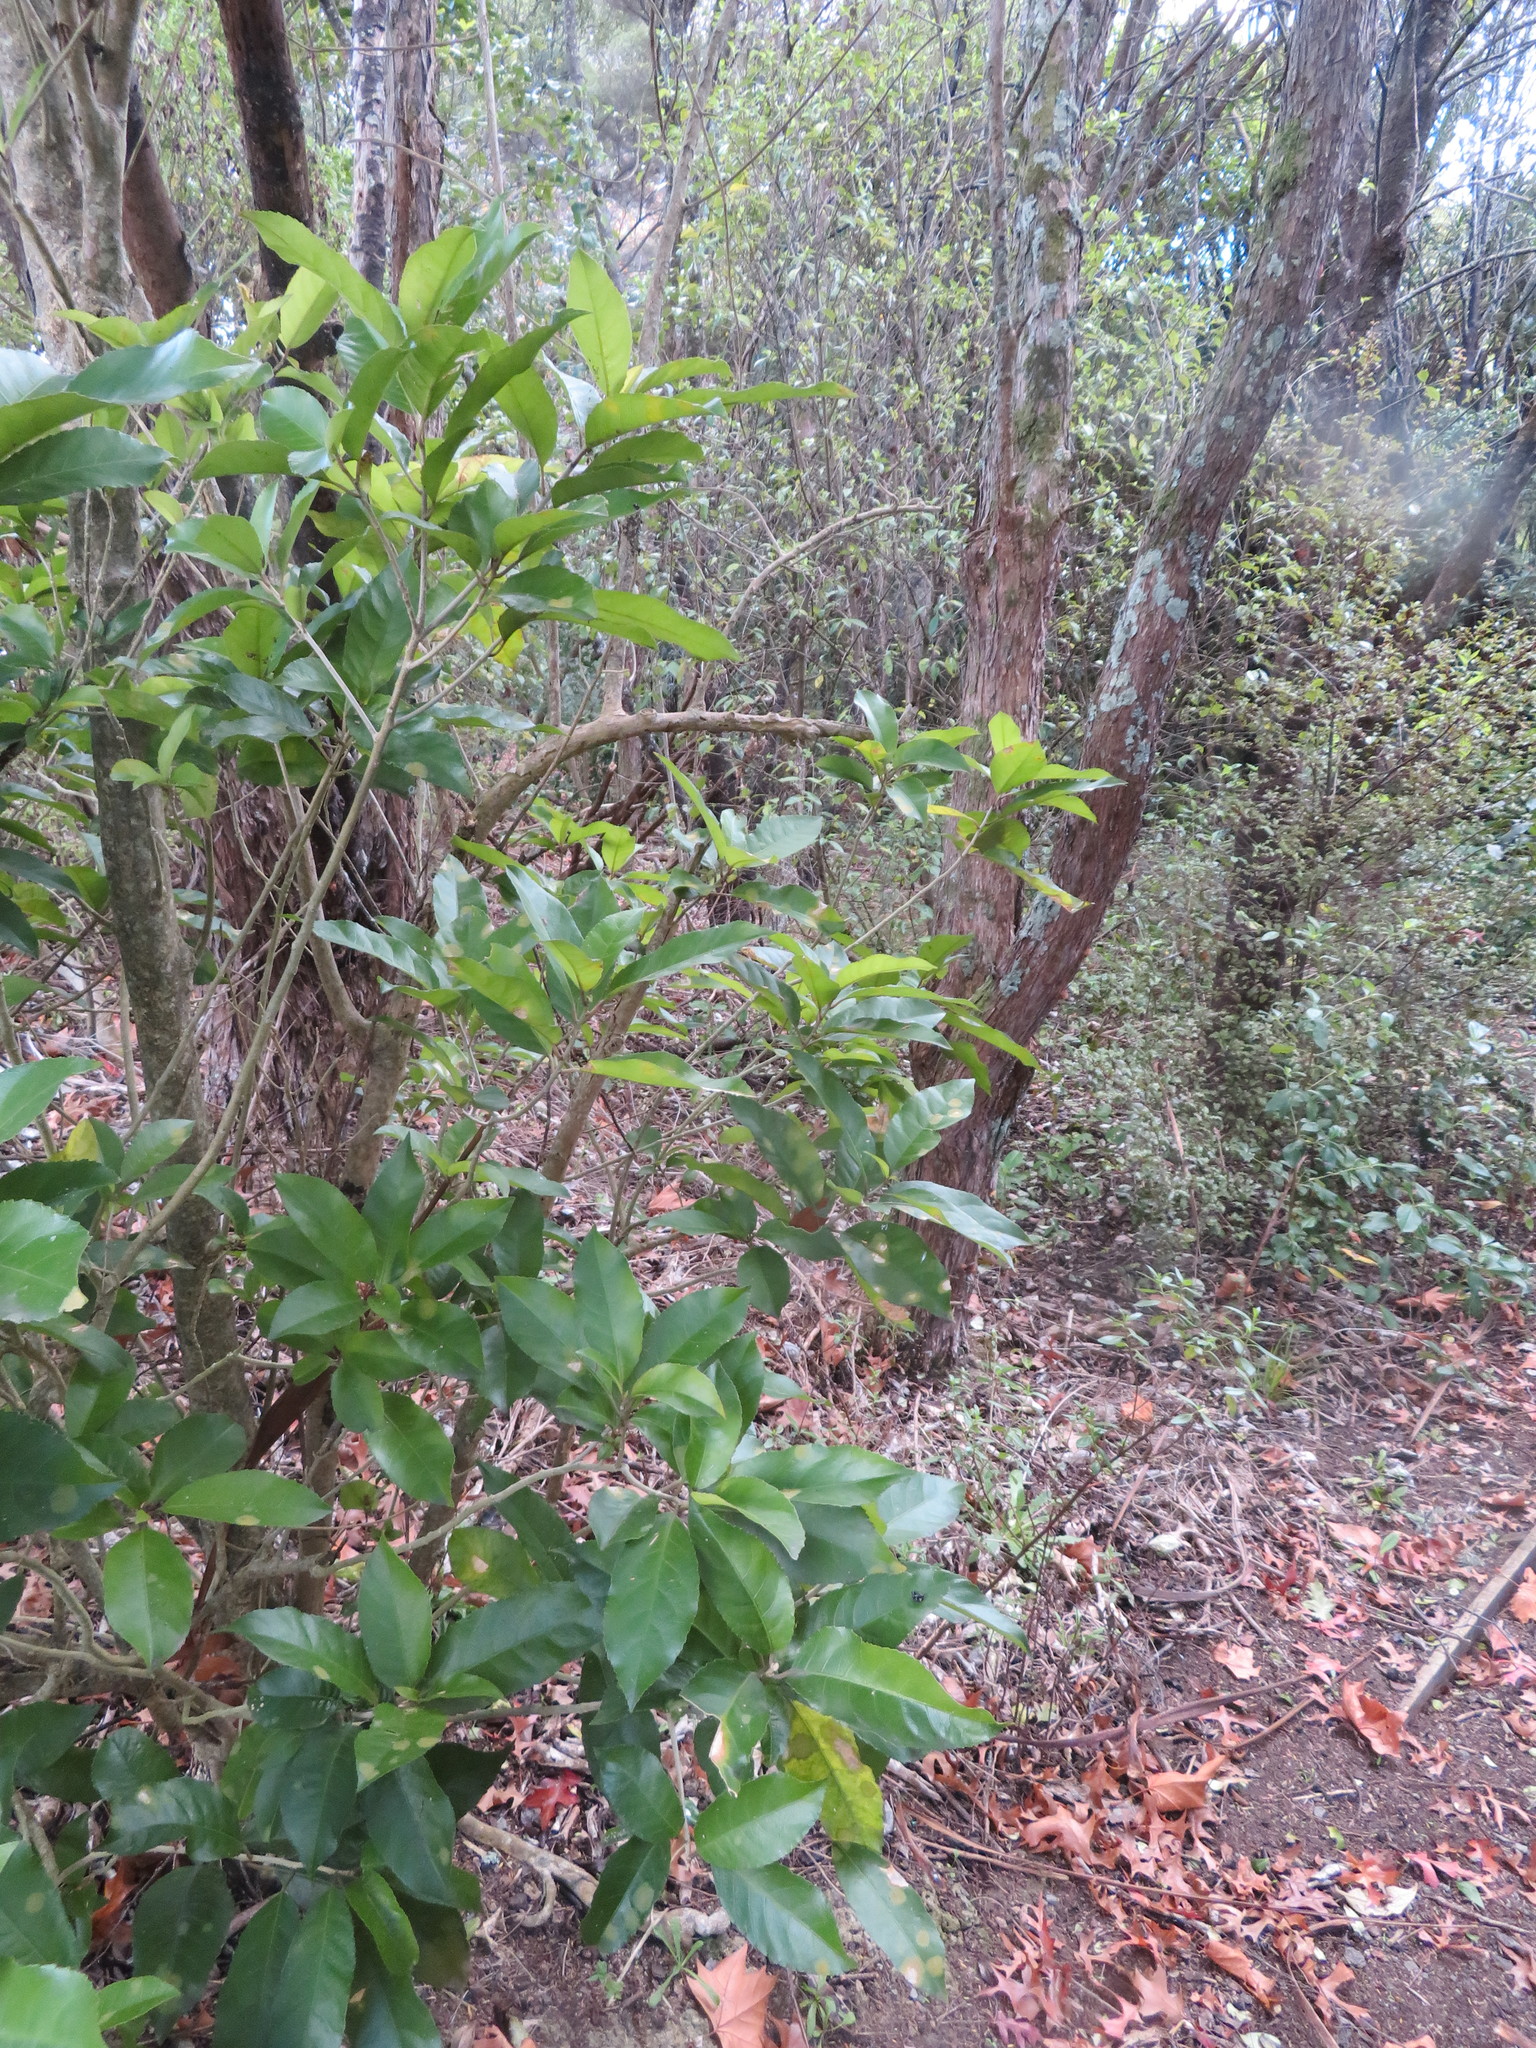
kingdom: Plantae
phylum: Tracheophyta
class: Magnoliopsida
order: Malpighiales
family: Violaceae
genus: Melicytus
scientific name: Melicytus ramiflorus
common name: Mahoe
